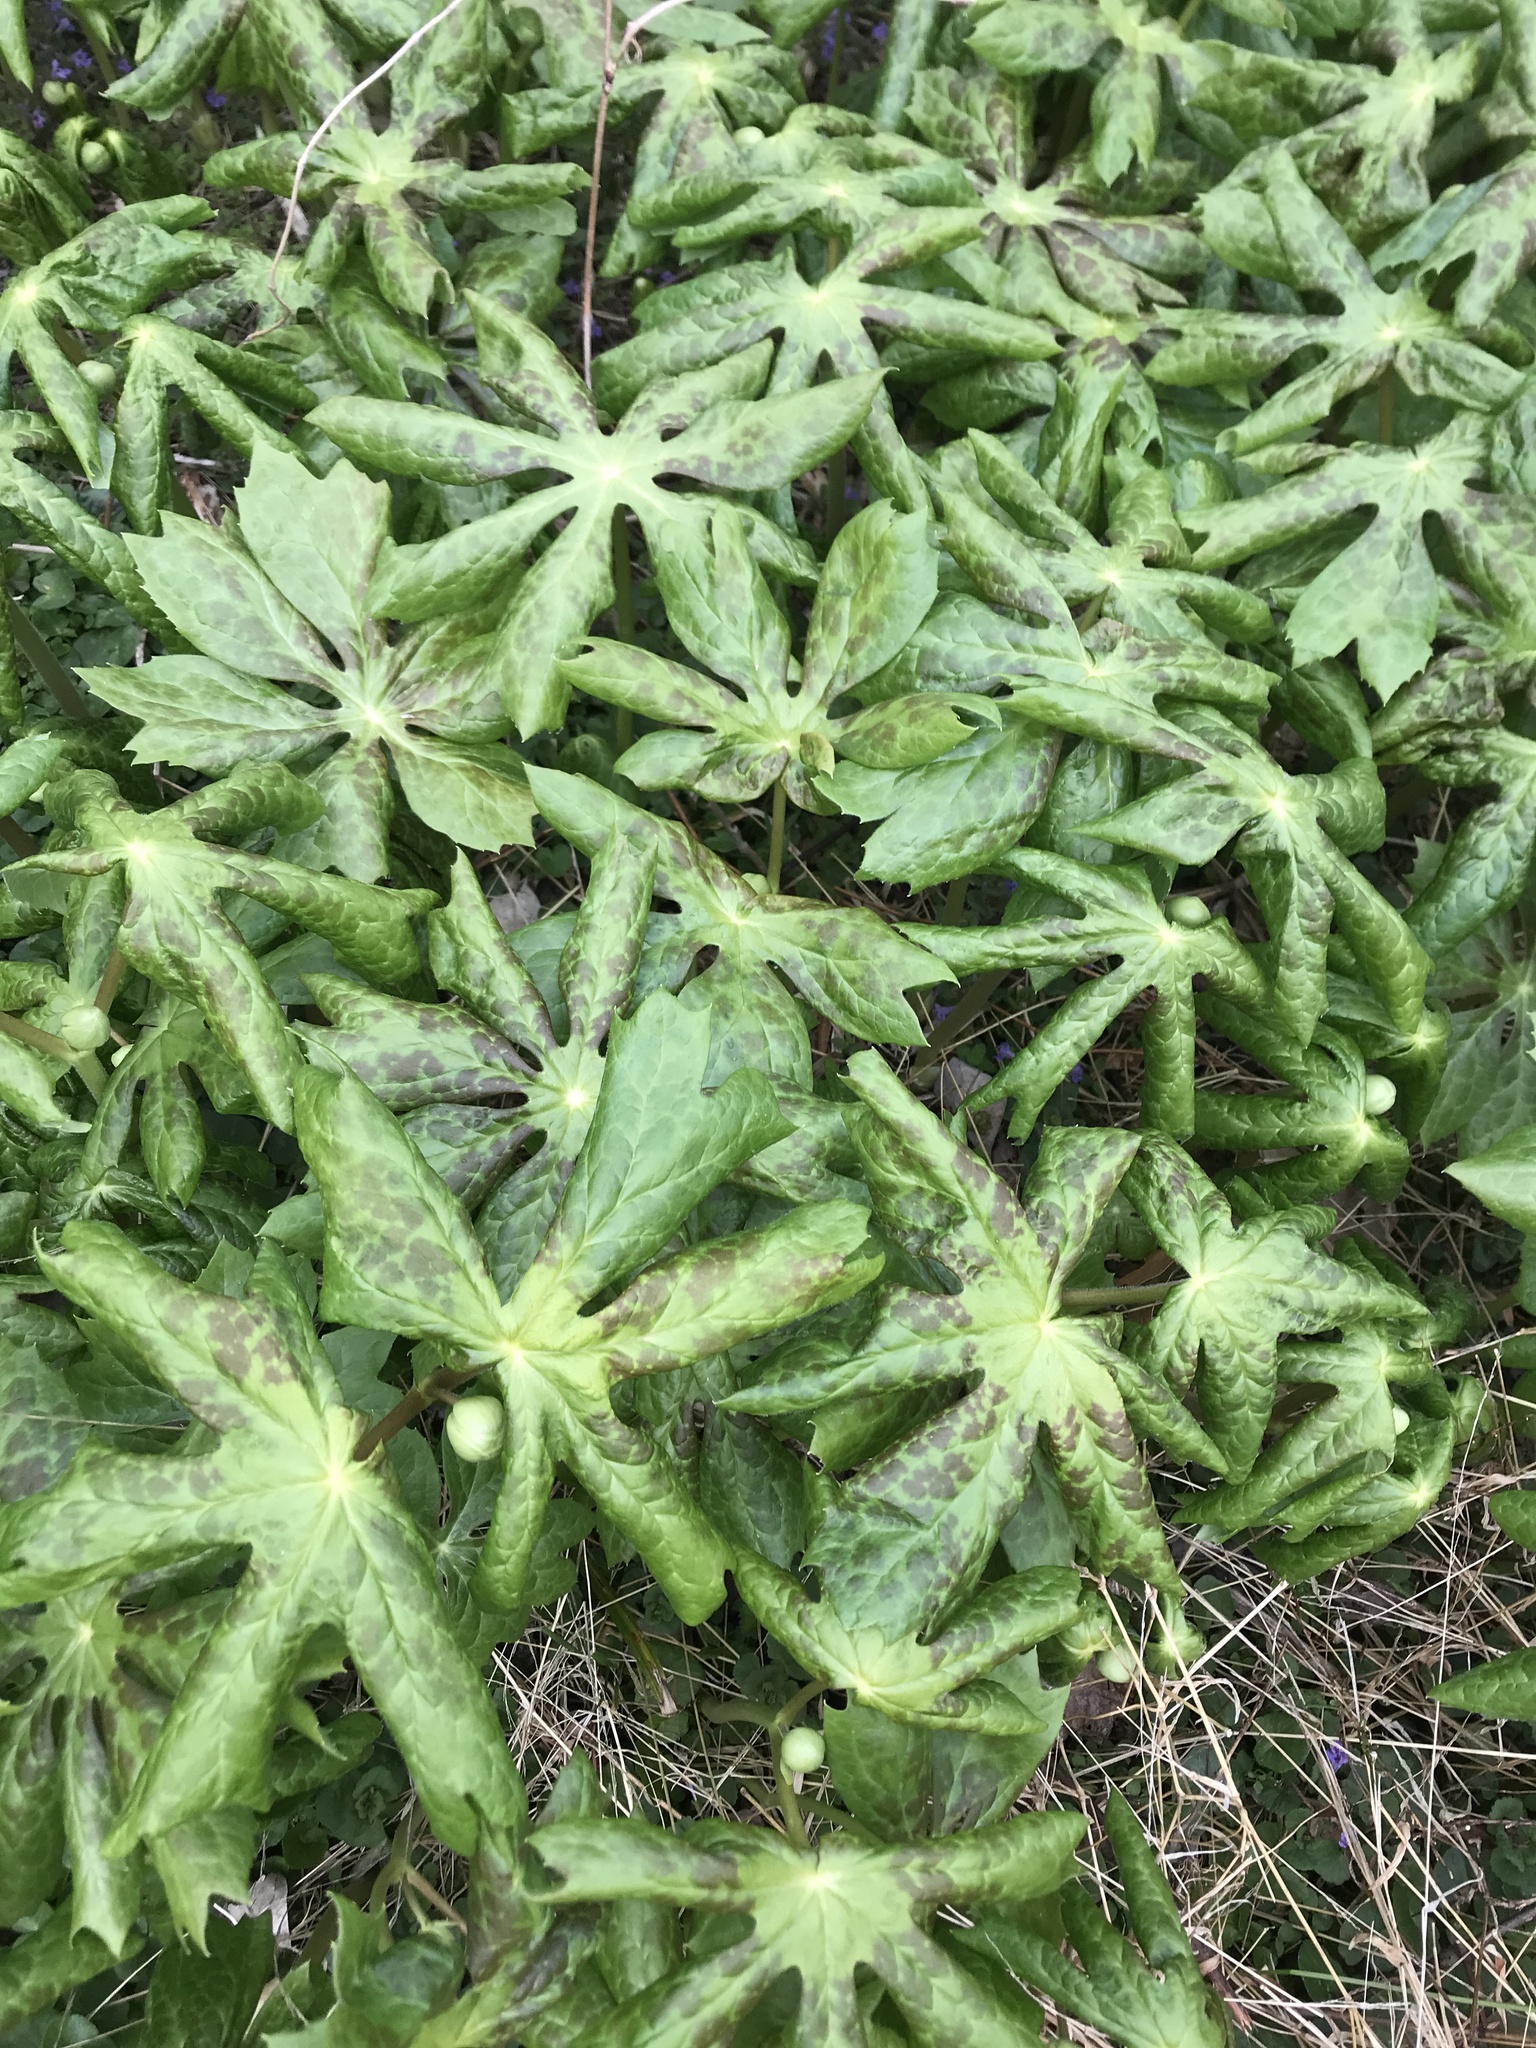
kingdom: Plantae
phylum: Tracheophyta
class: Magnoliopsida
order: Ranunculales
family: Berberidaceae
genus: Podophyllum
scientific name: Podophyllum peltatum
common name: Wild mandrake
